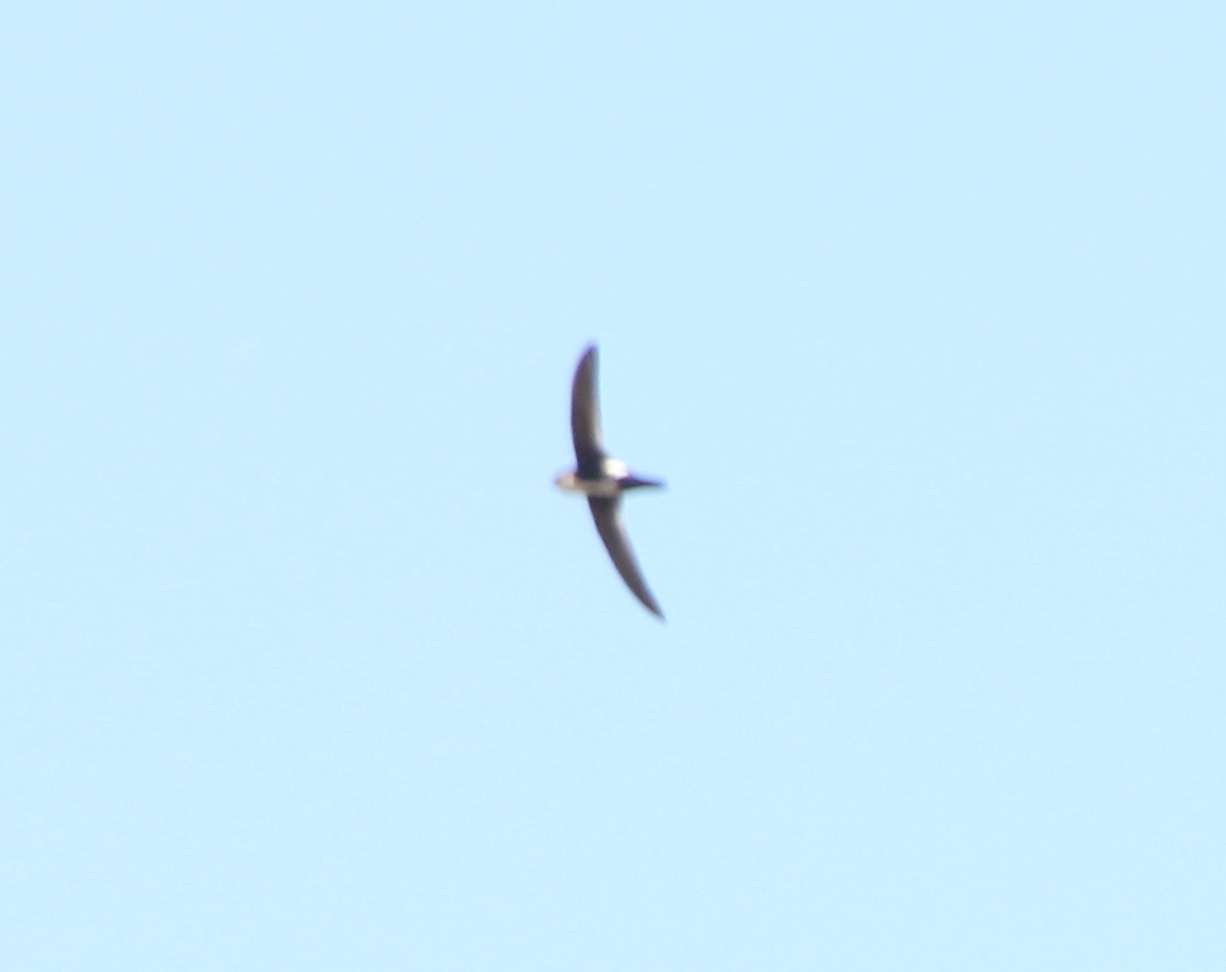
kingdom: Animalia
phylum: Chordata
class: Aves
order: Apodiformes
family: Apodidae
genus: Aeronautes
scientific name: Aeronautes saxatalis
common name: White-throated swift
